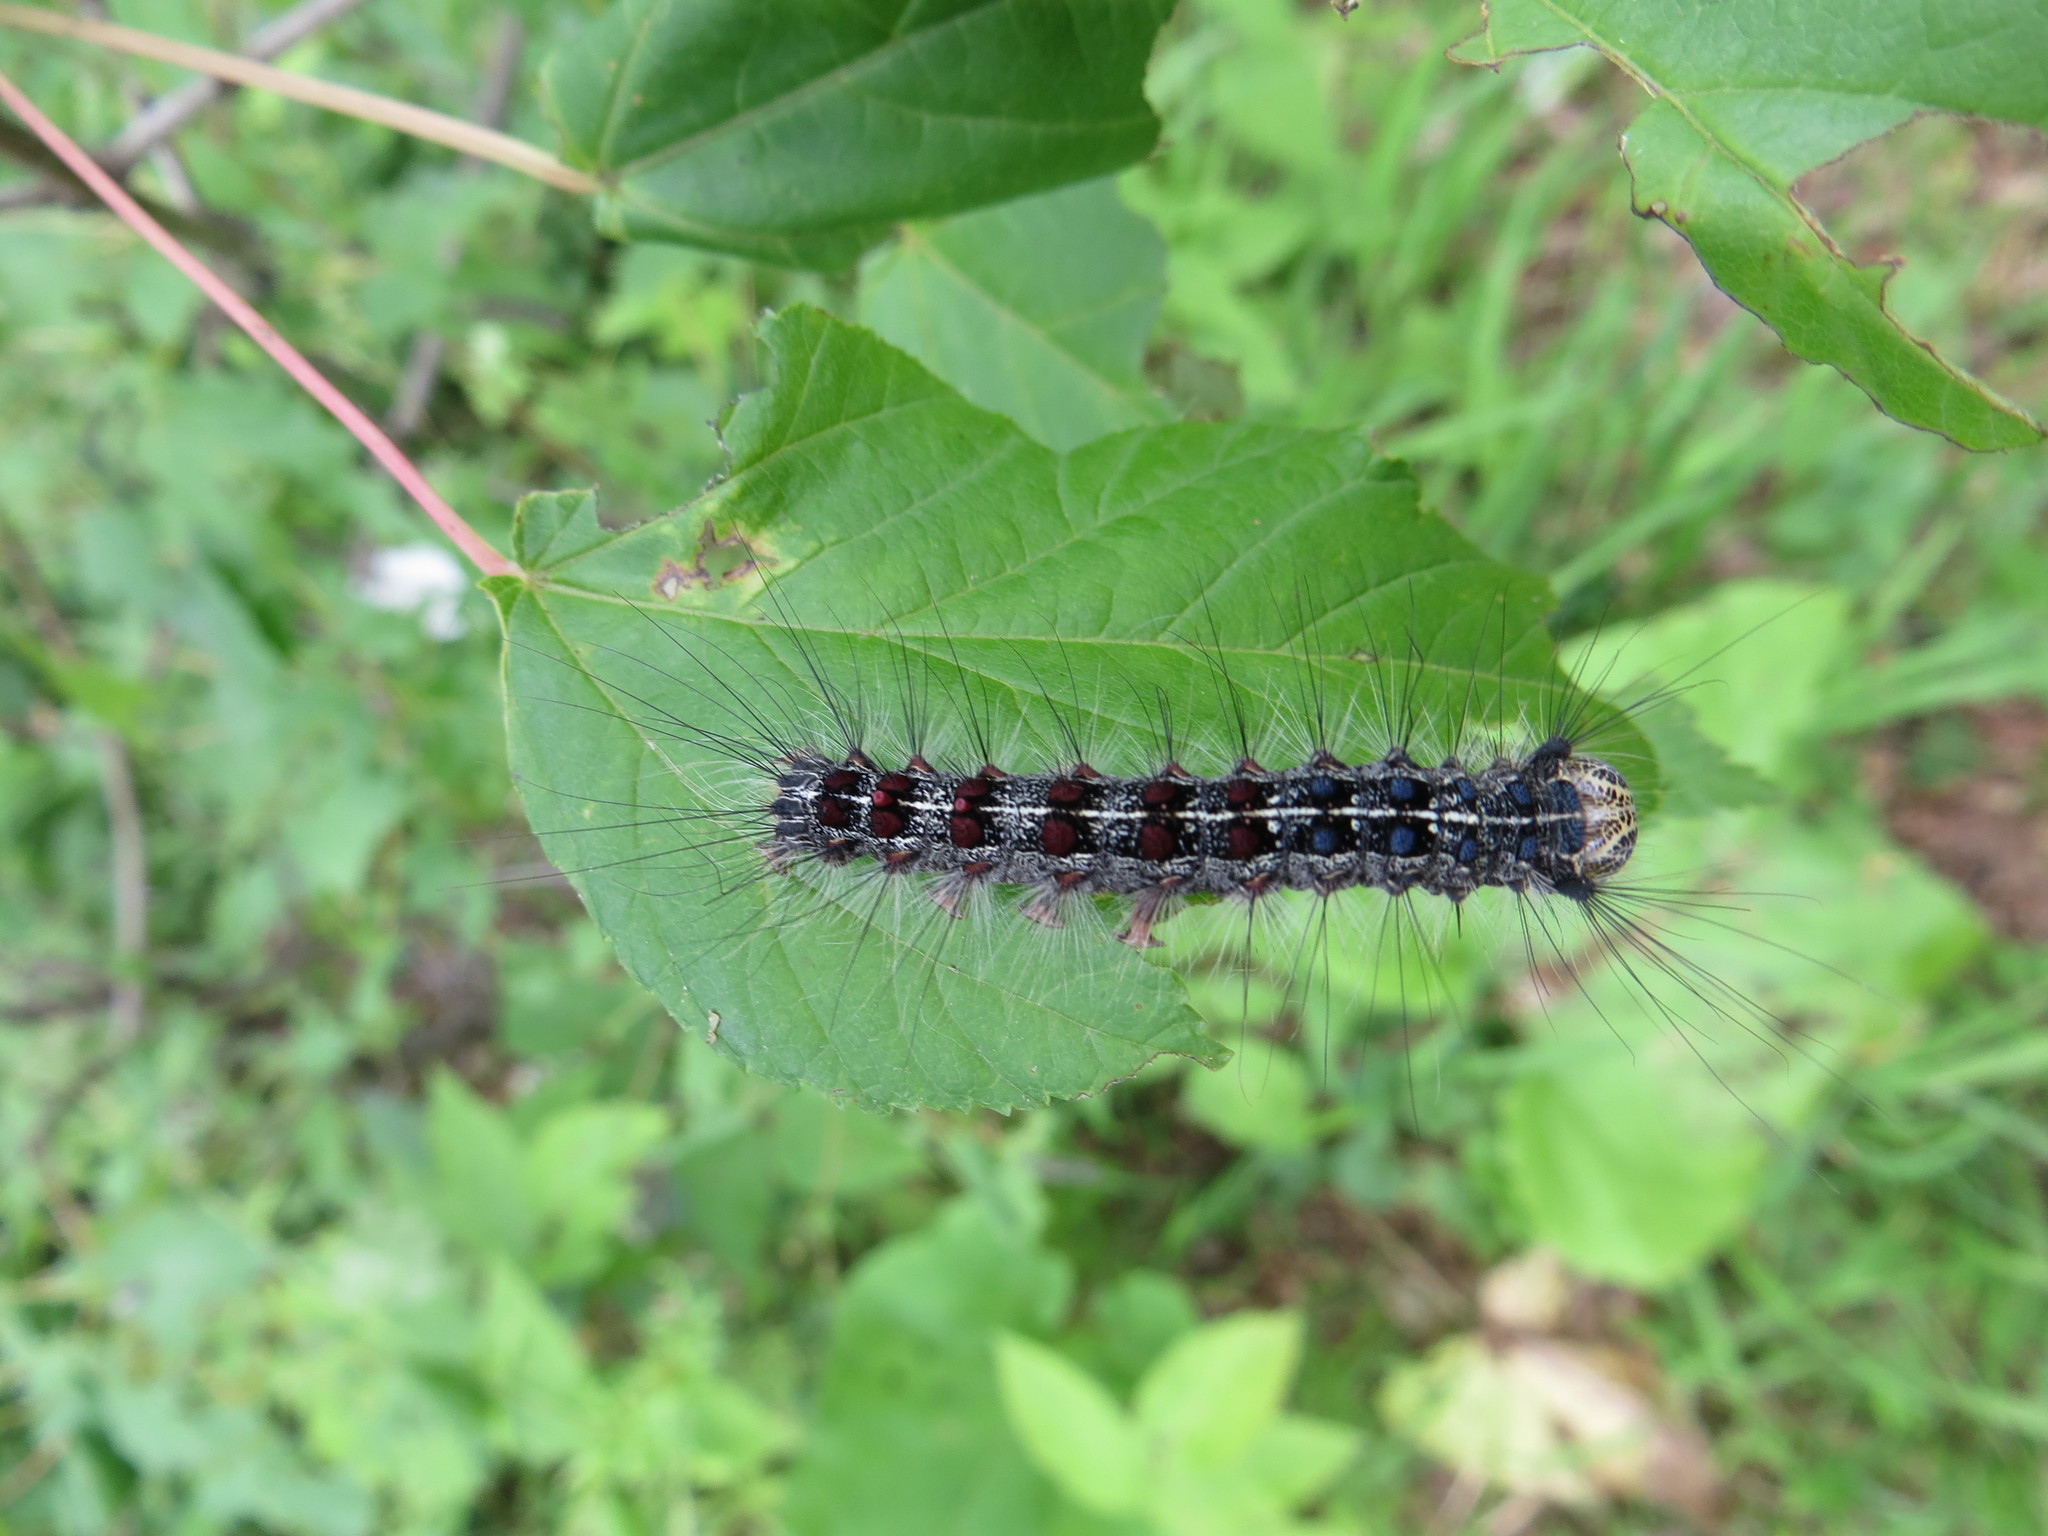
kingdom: Animalia
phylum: Arthropoda
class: Insecta
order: Lepidoptera
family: Erebidae
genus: Lymantria
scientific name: Lymantria dispar
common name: Gypsy moth
